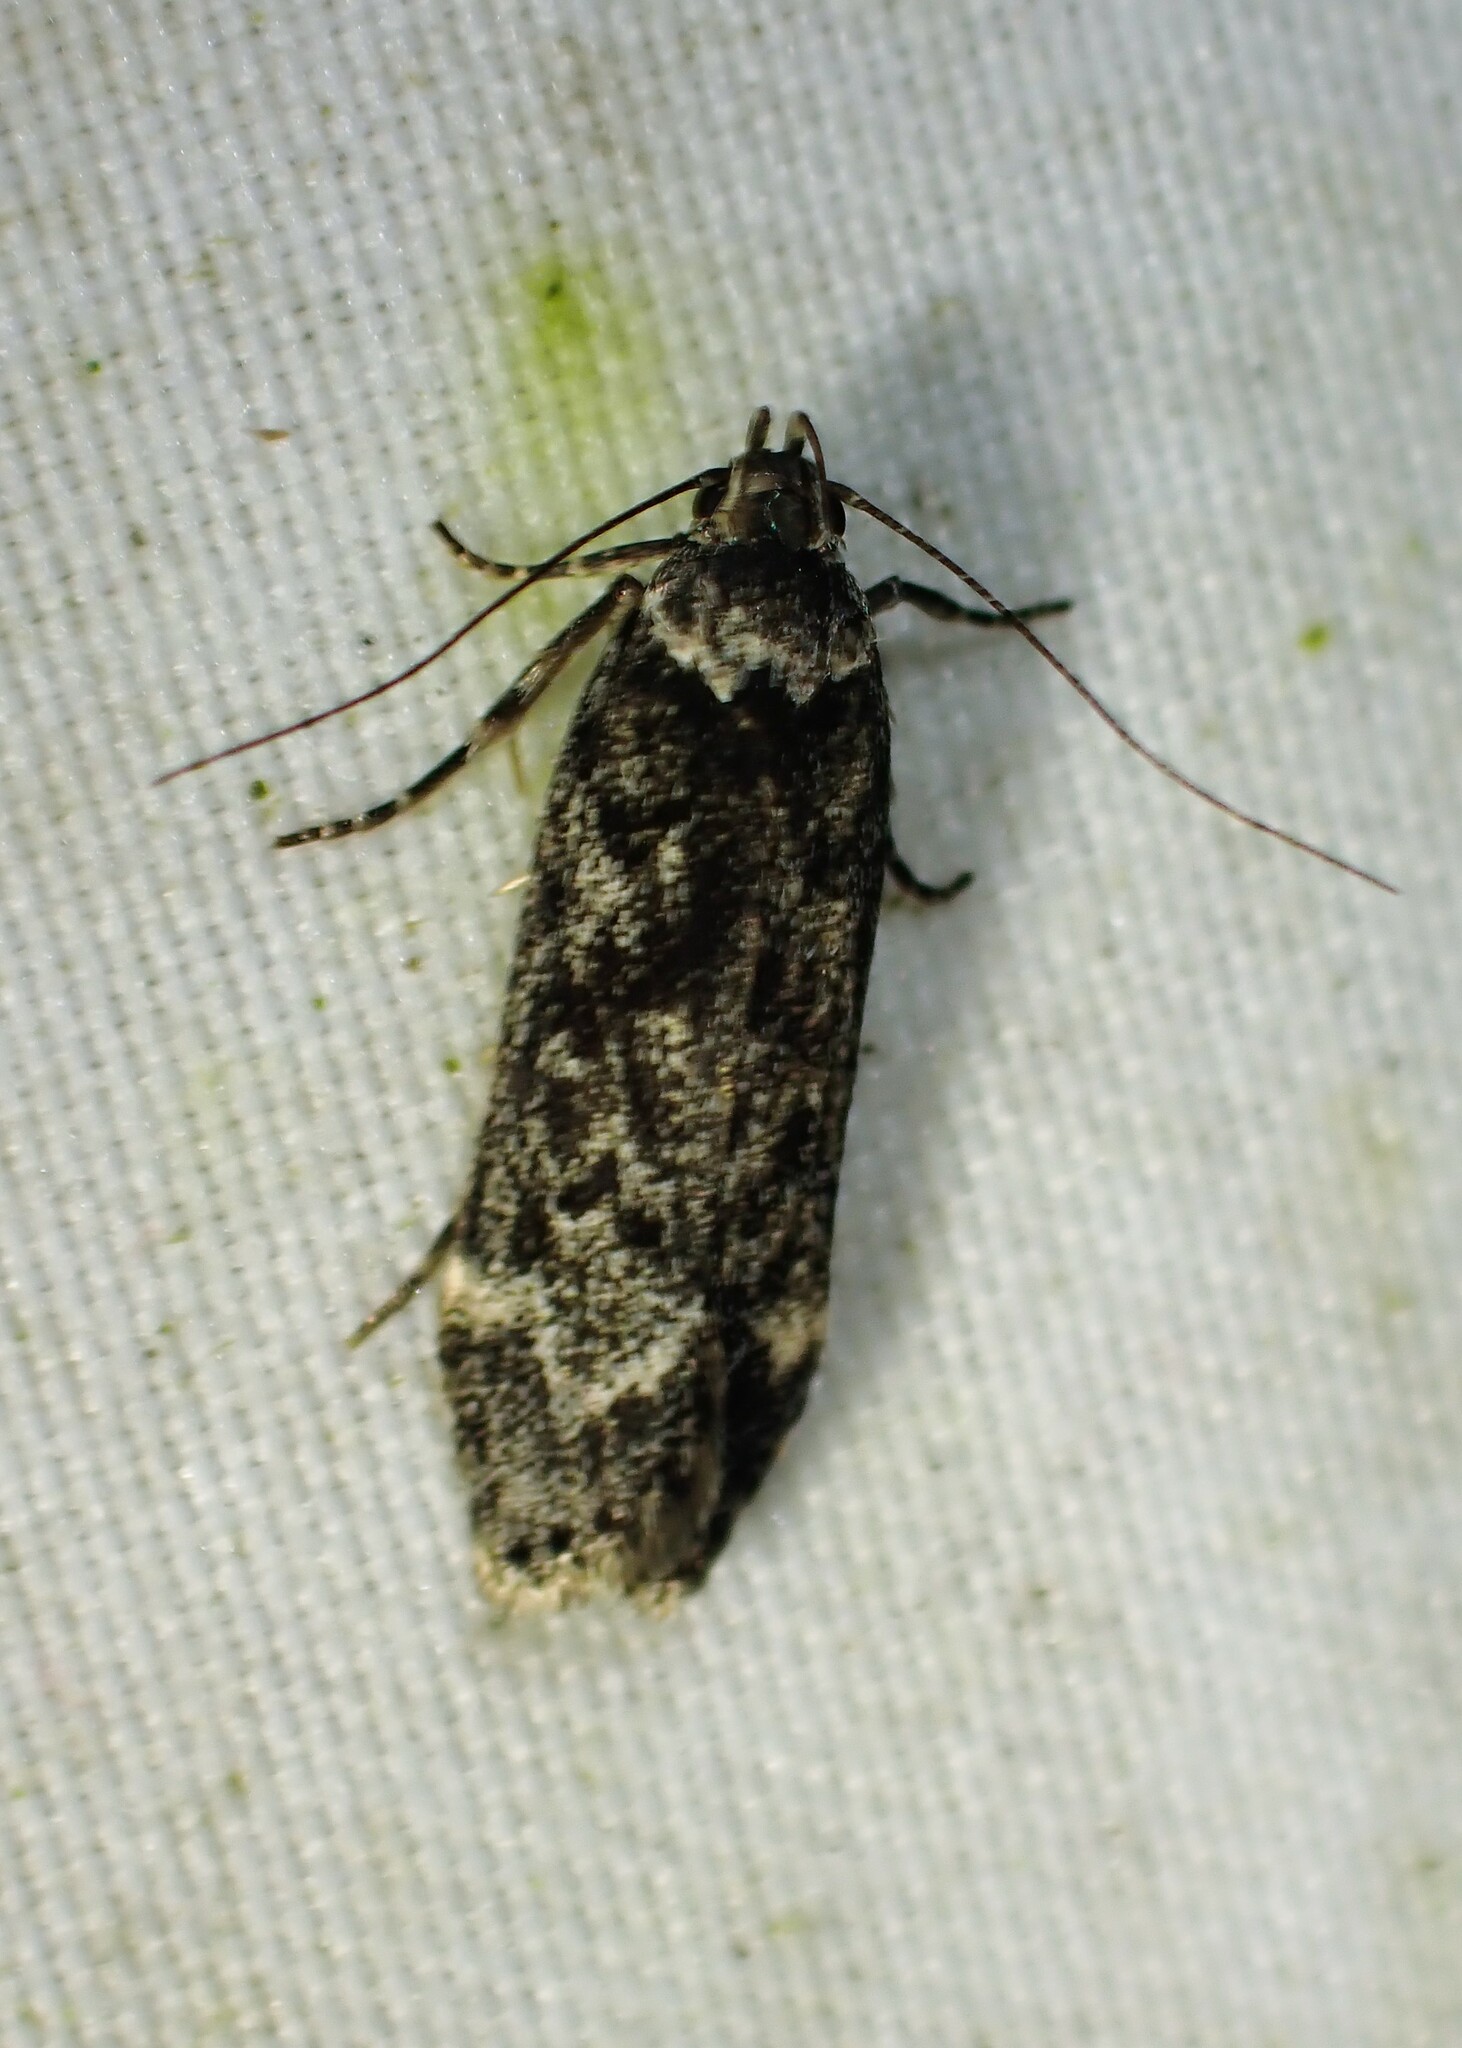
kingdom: Animalia
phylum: Arthropoda
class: Insecta
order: Lepidoptera
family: Gelechiidae
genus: Anacampsis
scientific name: Anacampsis niveopulvella
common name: Pale-headed aspen leafroller moth
